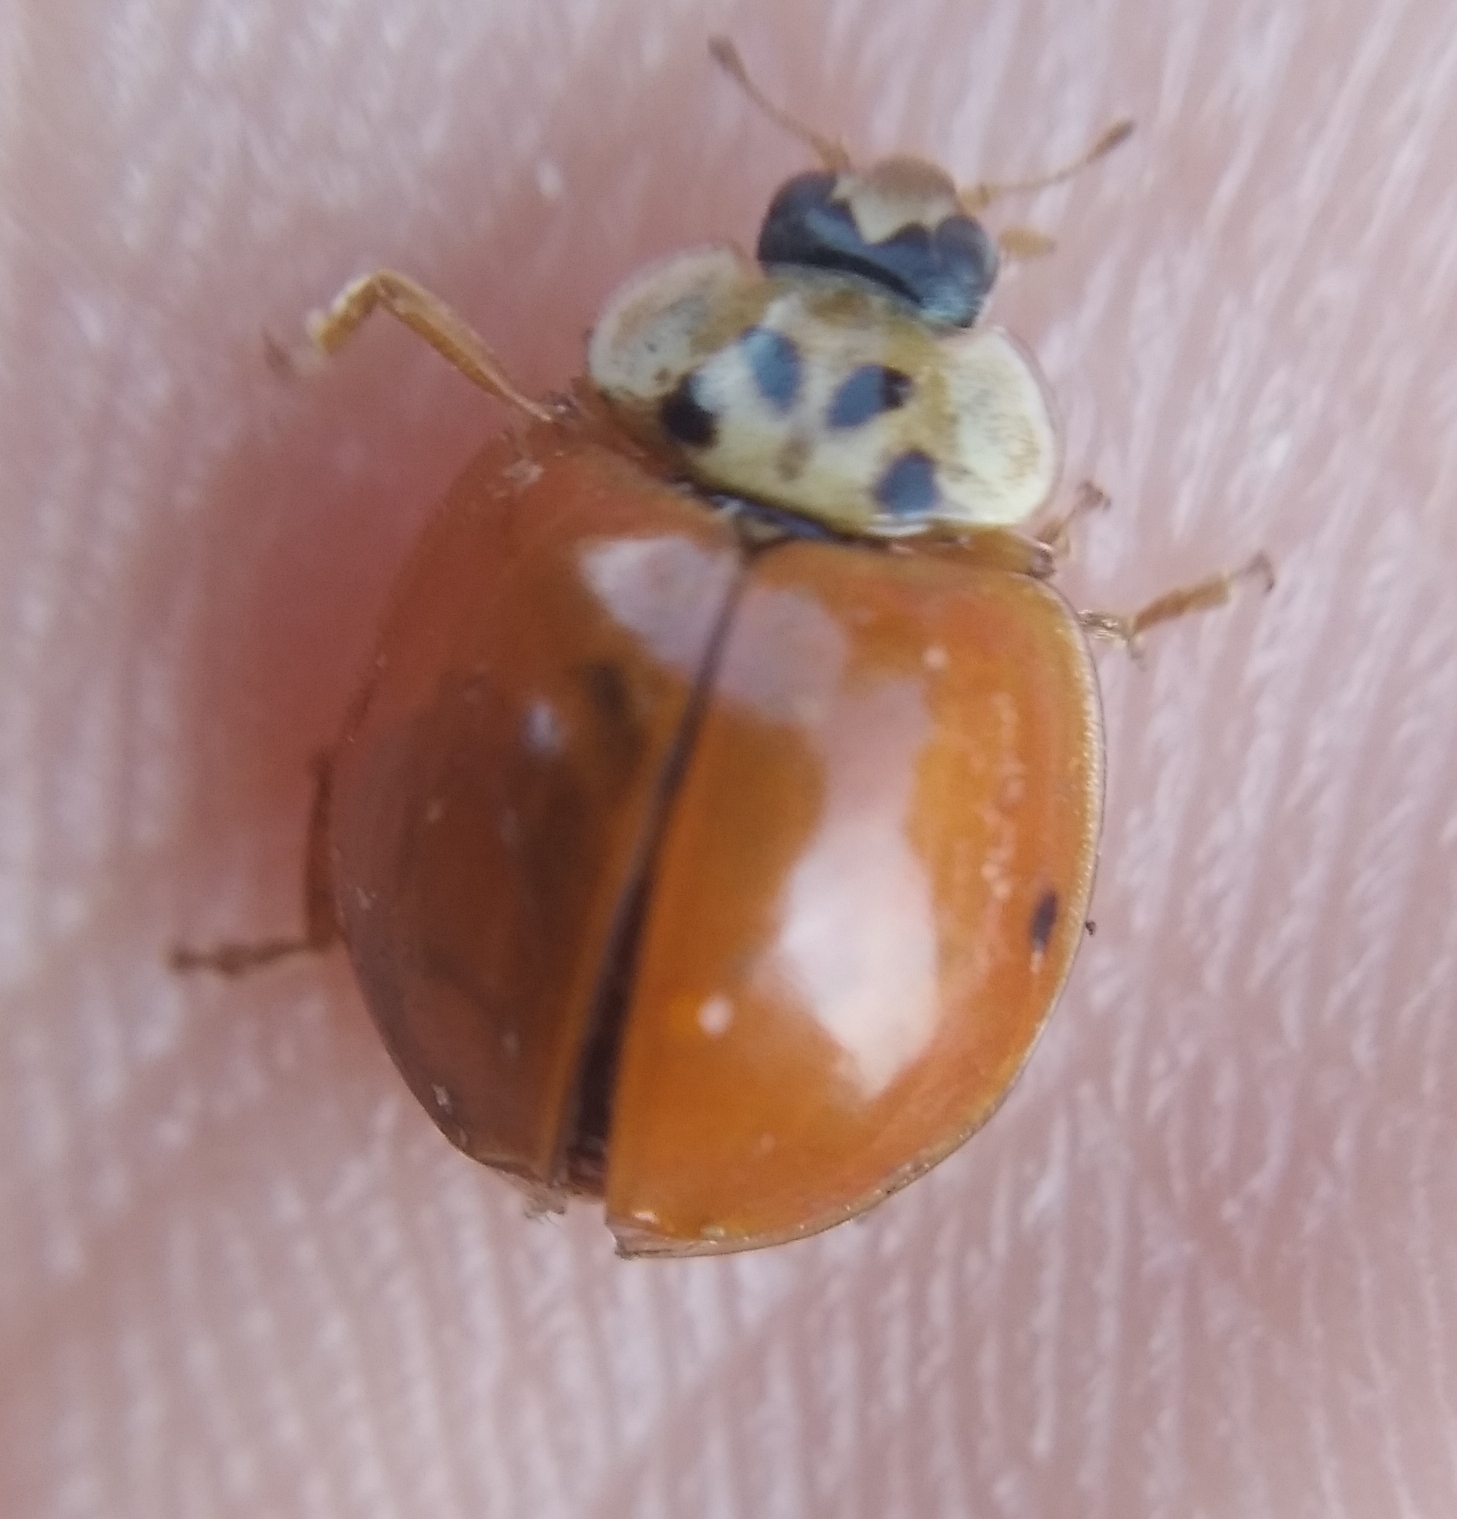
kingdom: Animalia
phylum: Arthropoda
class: Insecta
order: Coleoptera
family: Coccinellidae
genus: Harmonia
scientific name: Harmonia axyridis
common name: Harlequin ladybird
